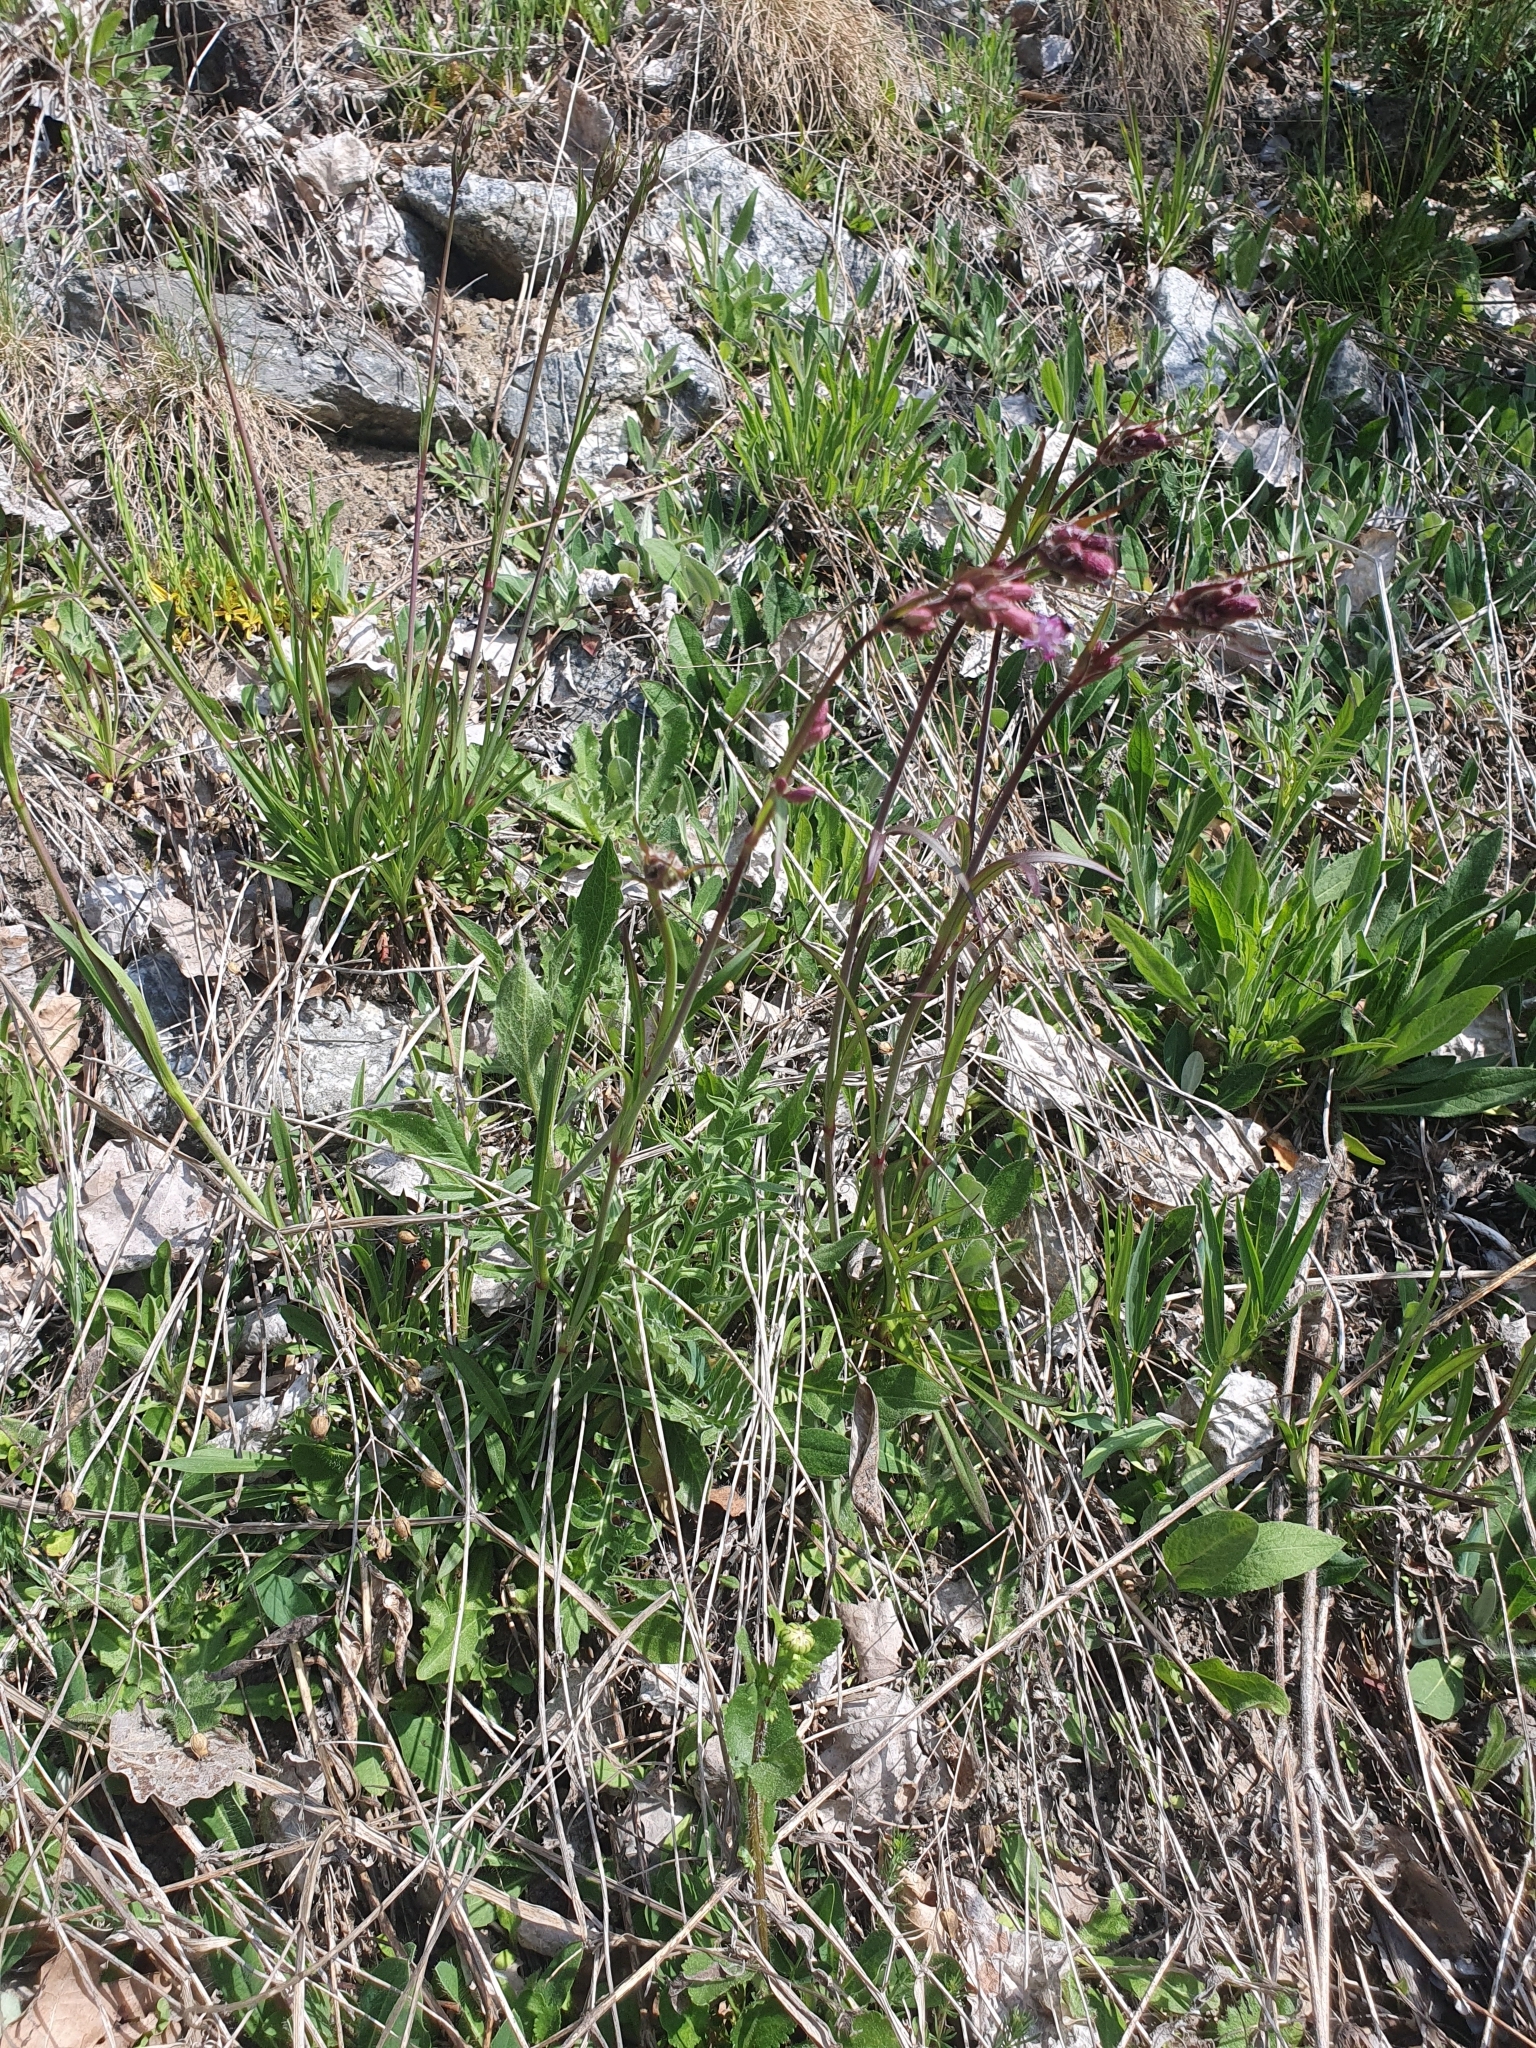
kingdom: Plantae
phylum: Tracheophyta
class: Magnoliopsida
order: Caryophyllales
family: Caryophyllaceae
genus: Viscaria
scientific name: Viscaria vulgaris
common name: Clammy campion
